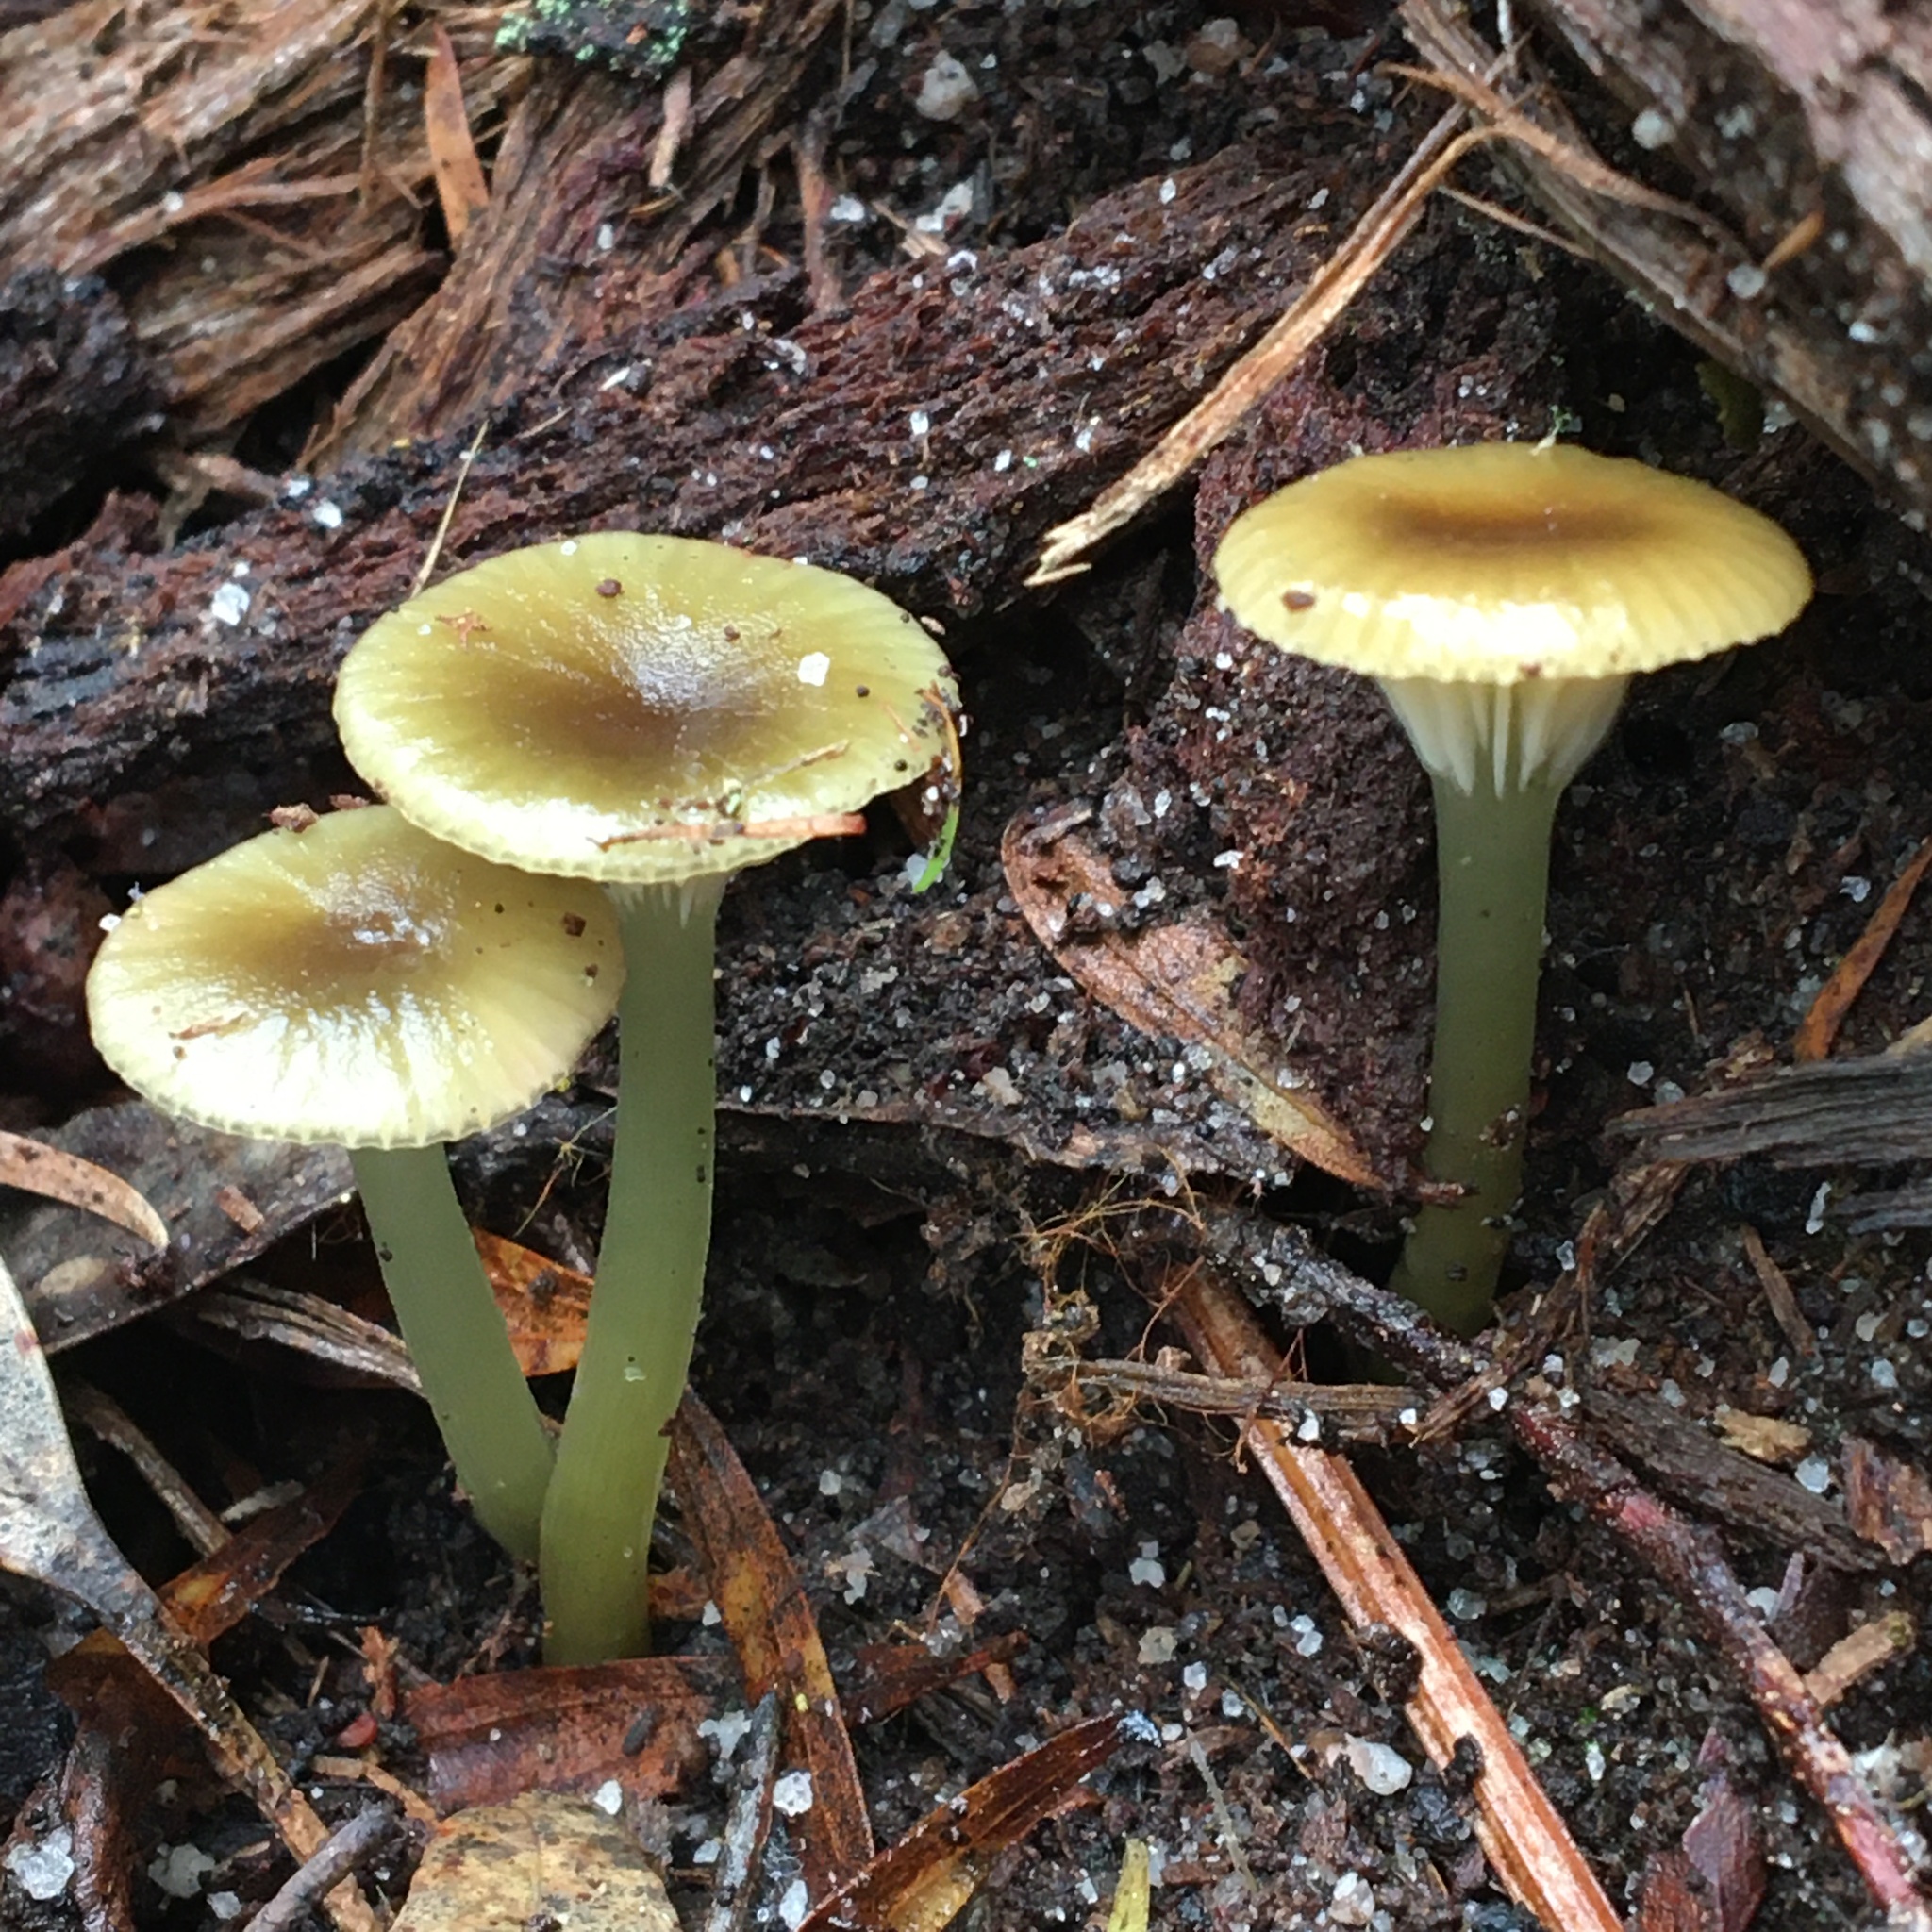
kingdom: Fungi
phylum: Basidiomycota
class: Agaricomycetes
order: Agaricales
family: Hygrophoraceae
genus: Gliophorus
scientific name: Gliophorus graminicolor
